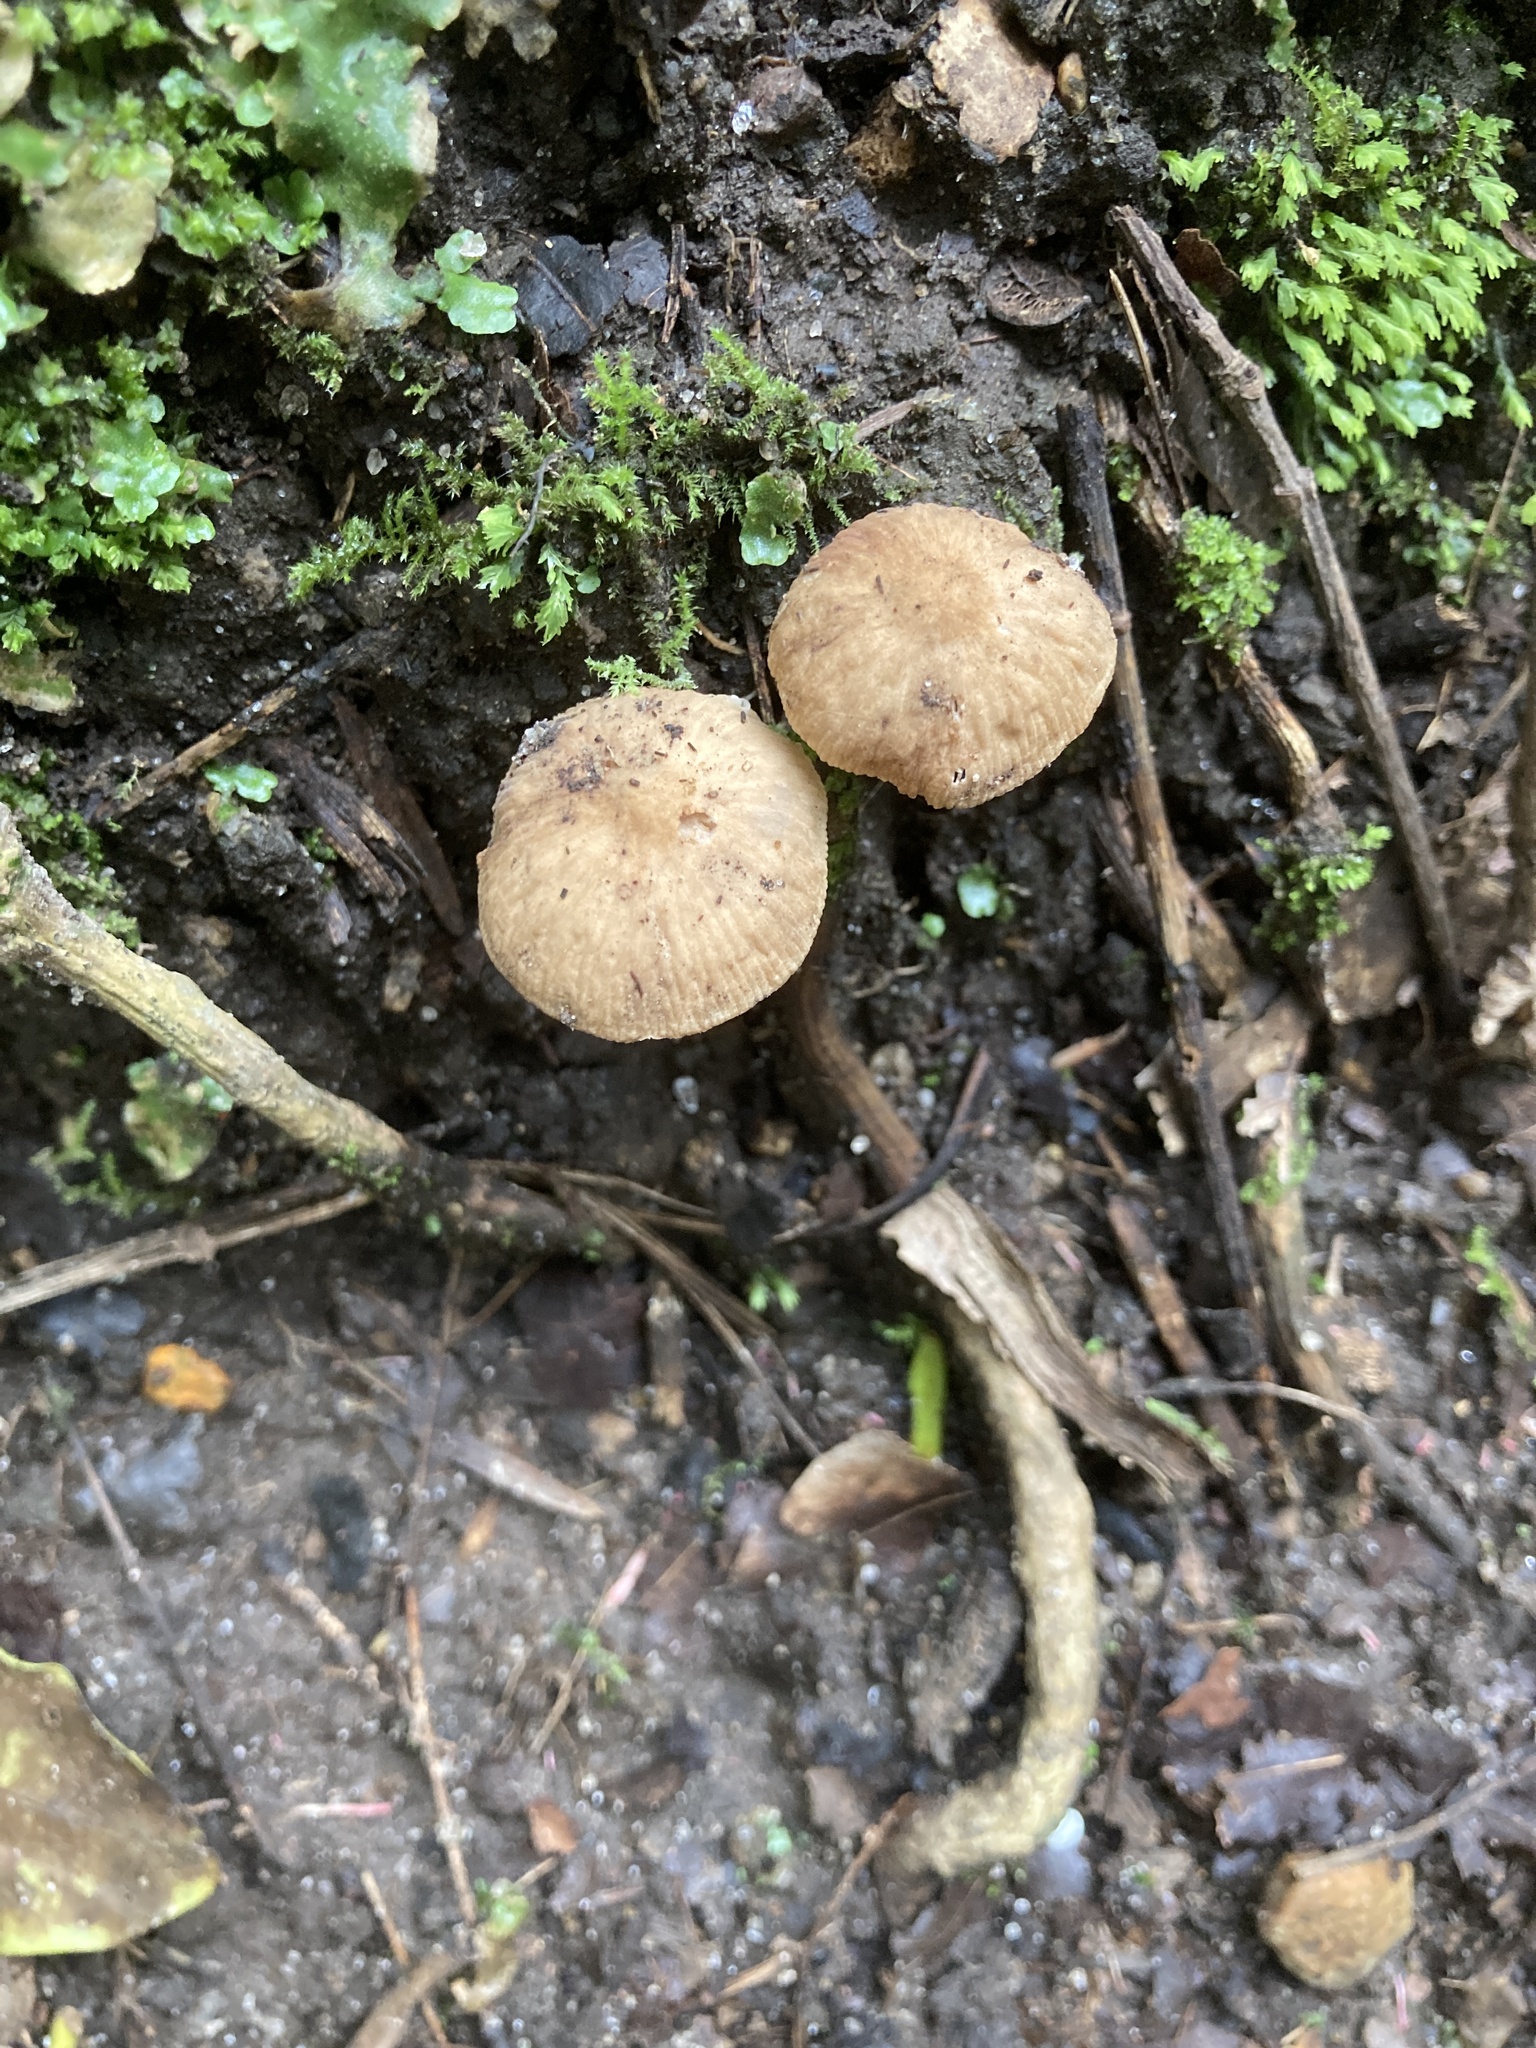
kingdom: Fungi
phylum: Basidiomycota
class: Agaricomycetes
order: Agaricales
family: Omphalotaceae
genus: Collybiopsis
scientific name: Collybiopsis subpruinosa
